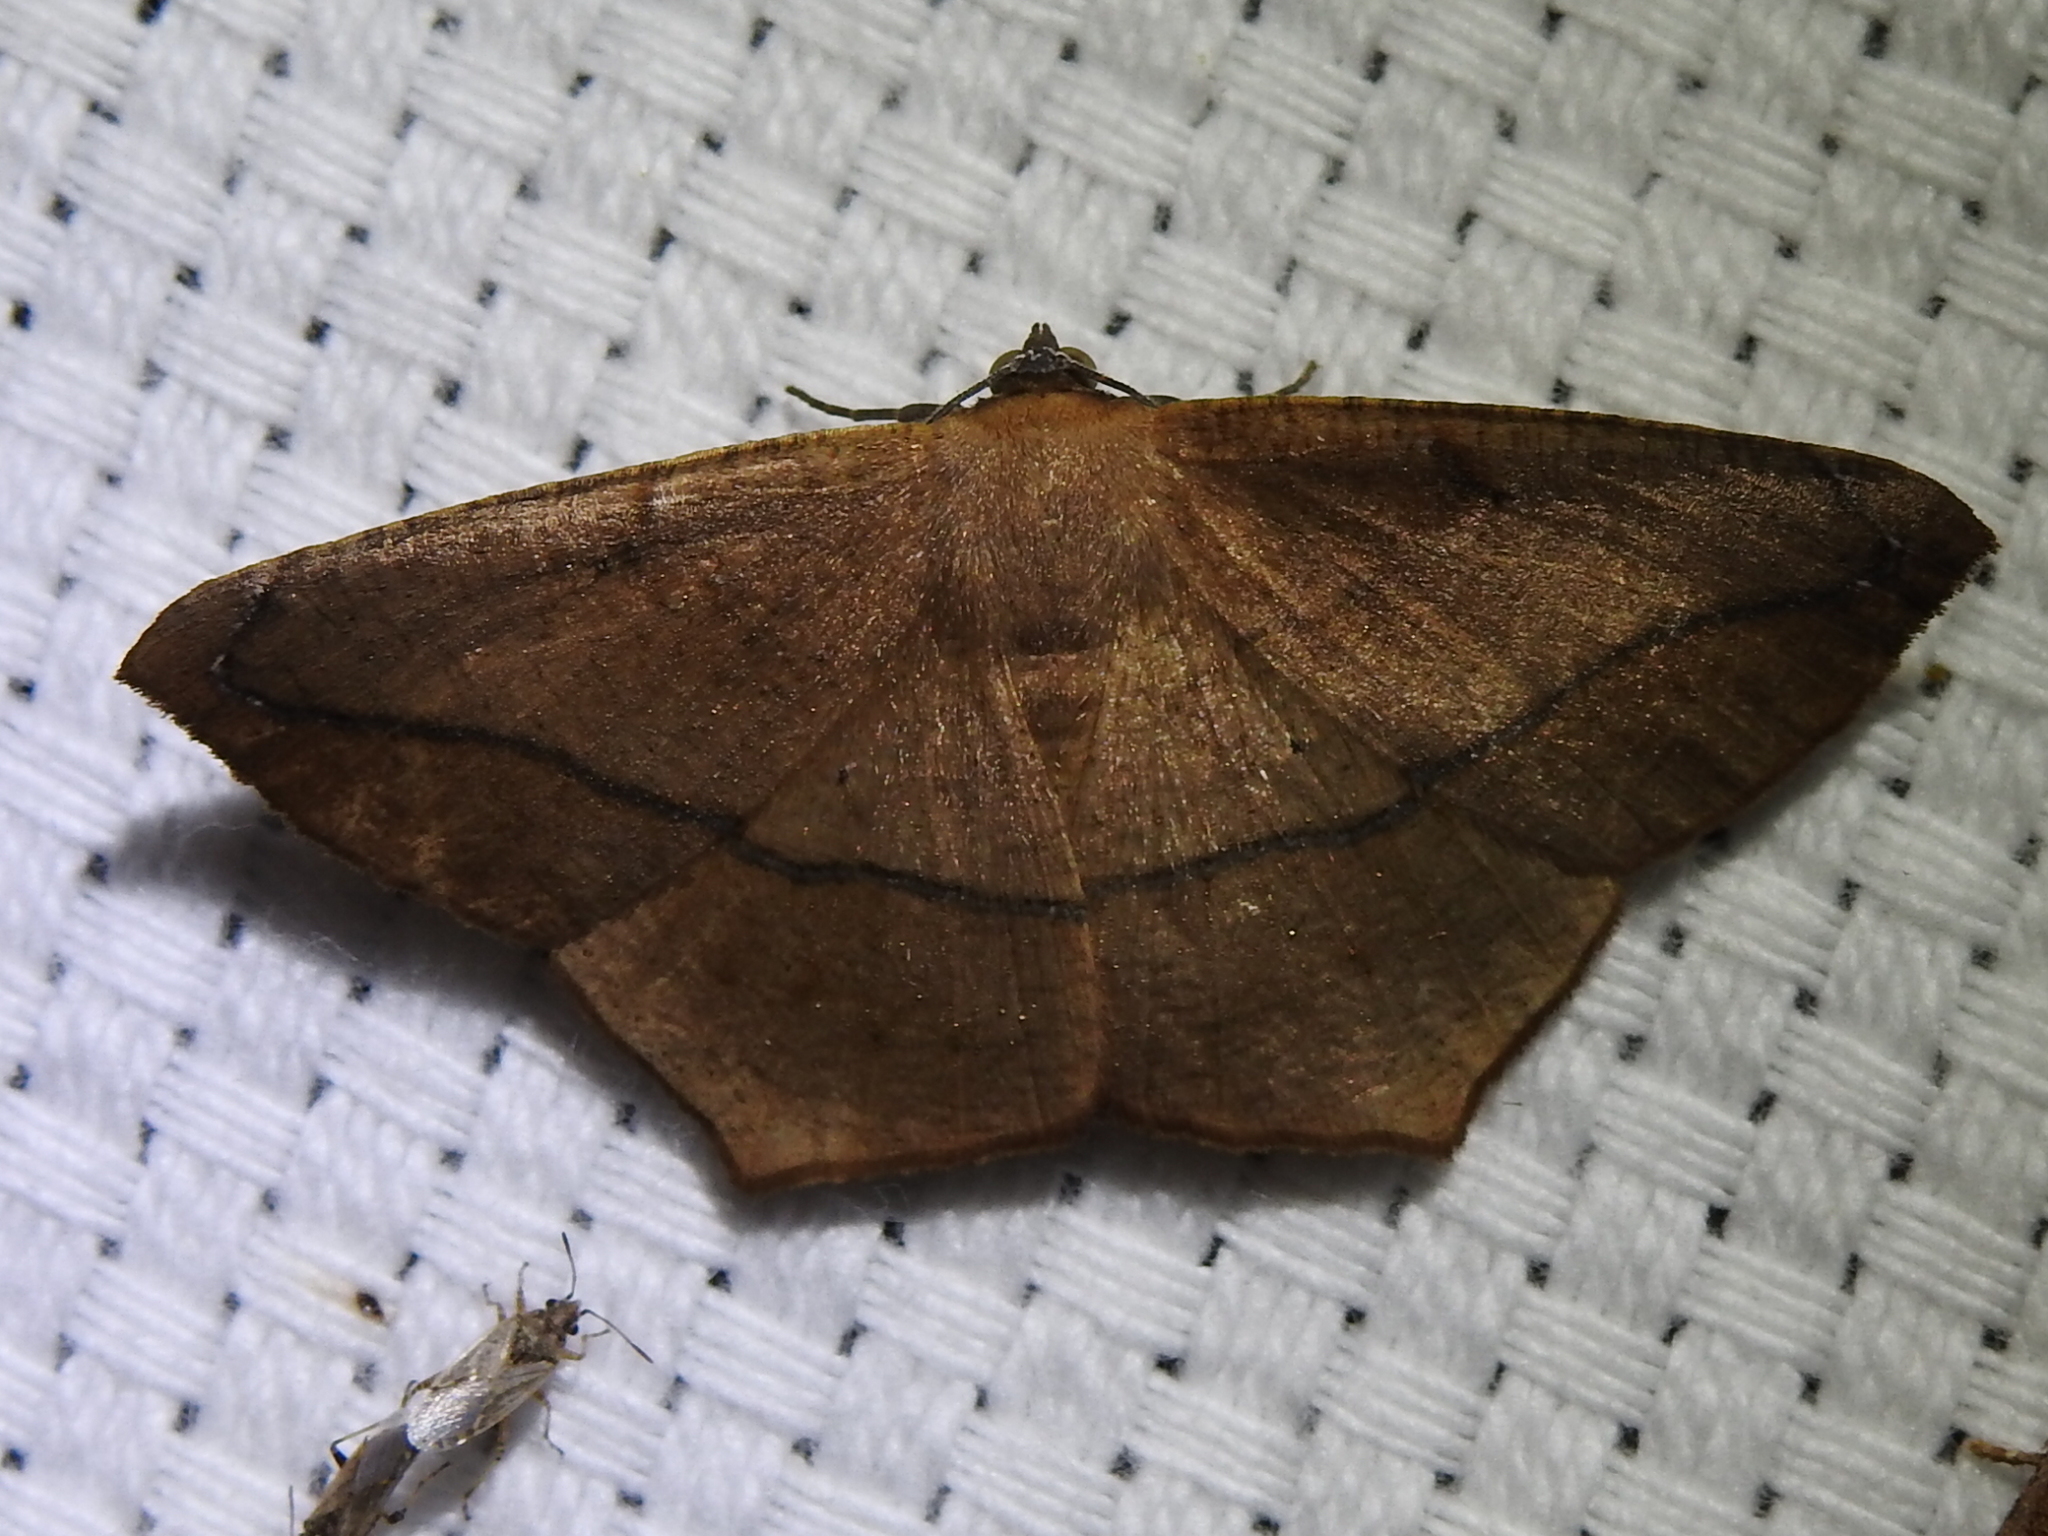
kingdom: Animalia
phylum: Arthropoda
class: Insecta
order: Lepidoptera
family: Geometridae
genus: Prochoerodes
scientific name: Prochoerodes lineola
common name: Large maple spanworm
